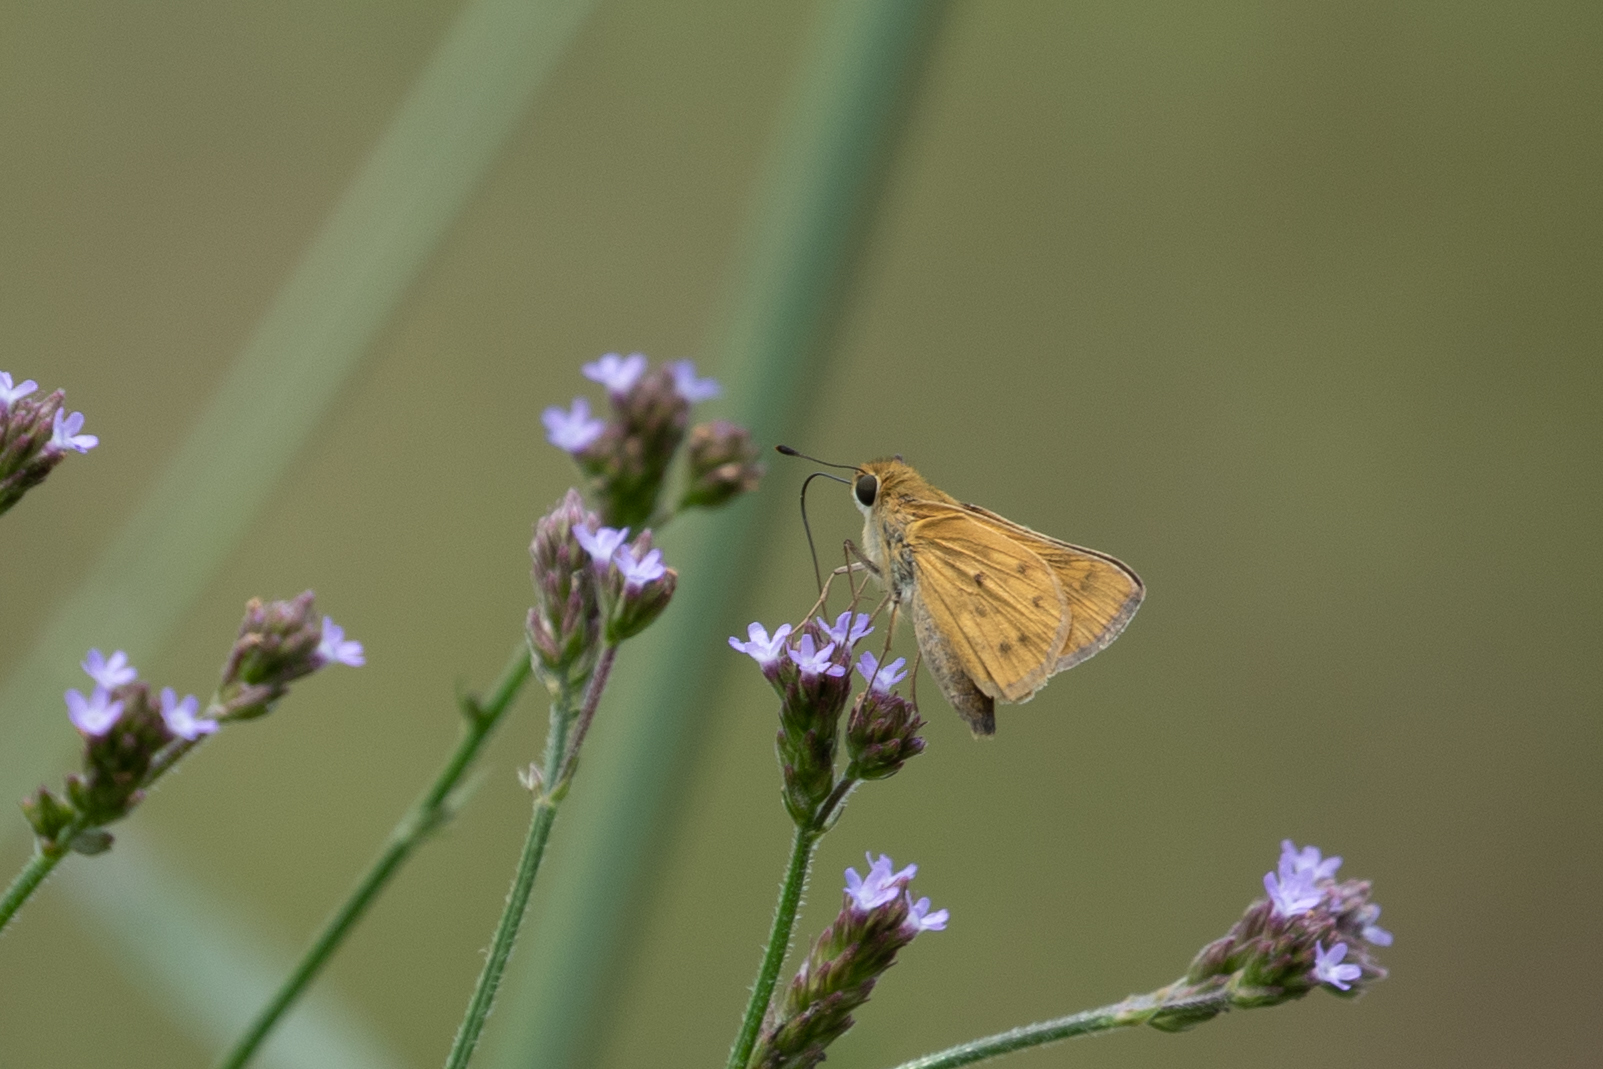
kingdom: Animalia
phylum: Arthropoda
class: Insecta
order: Lepidoptera
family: Hesperiidae
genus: Hylephila
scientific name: Hylephila phyleus
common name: Fiery skipper
